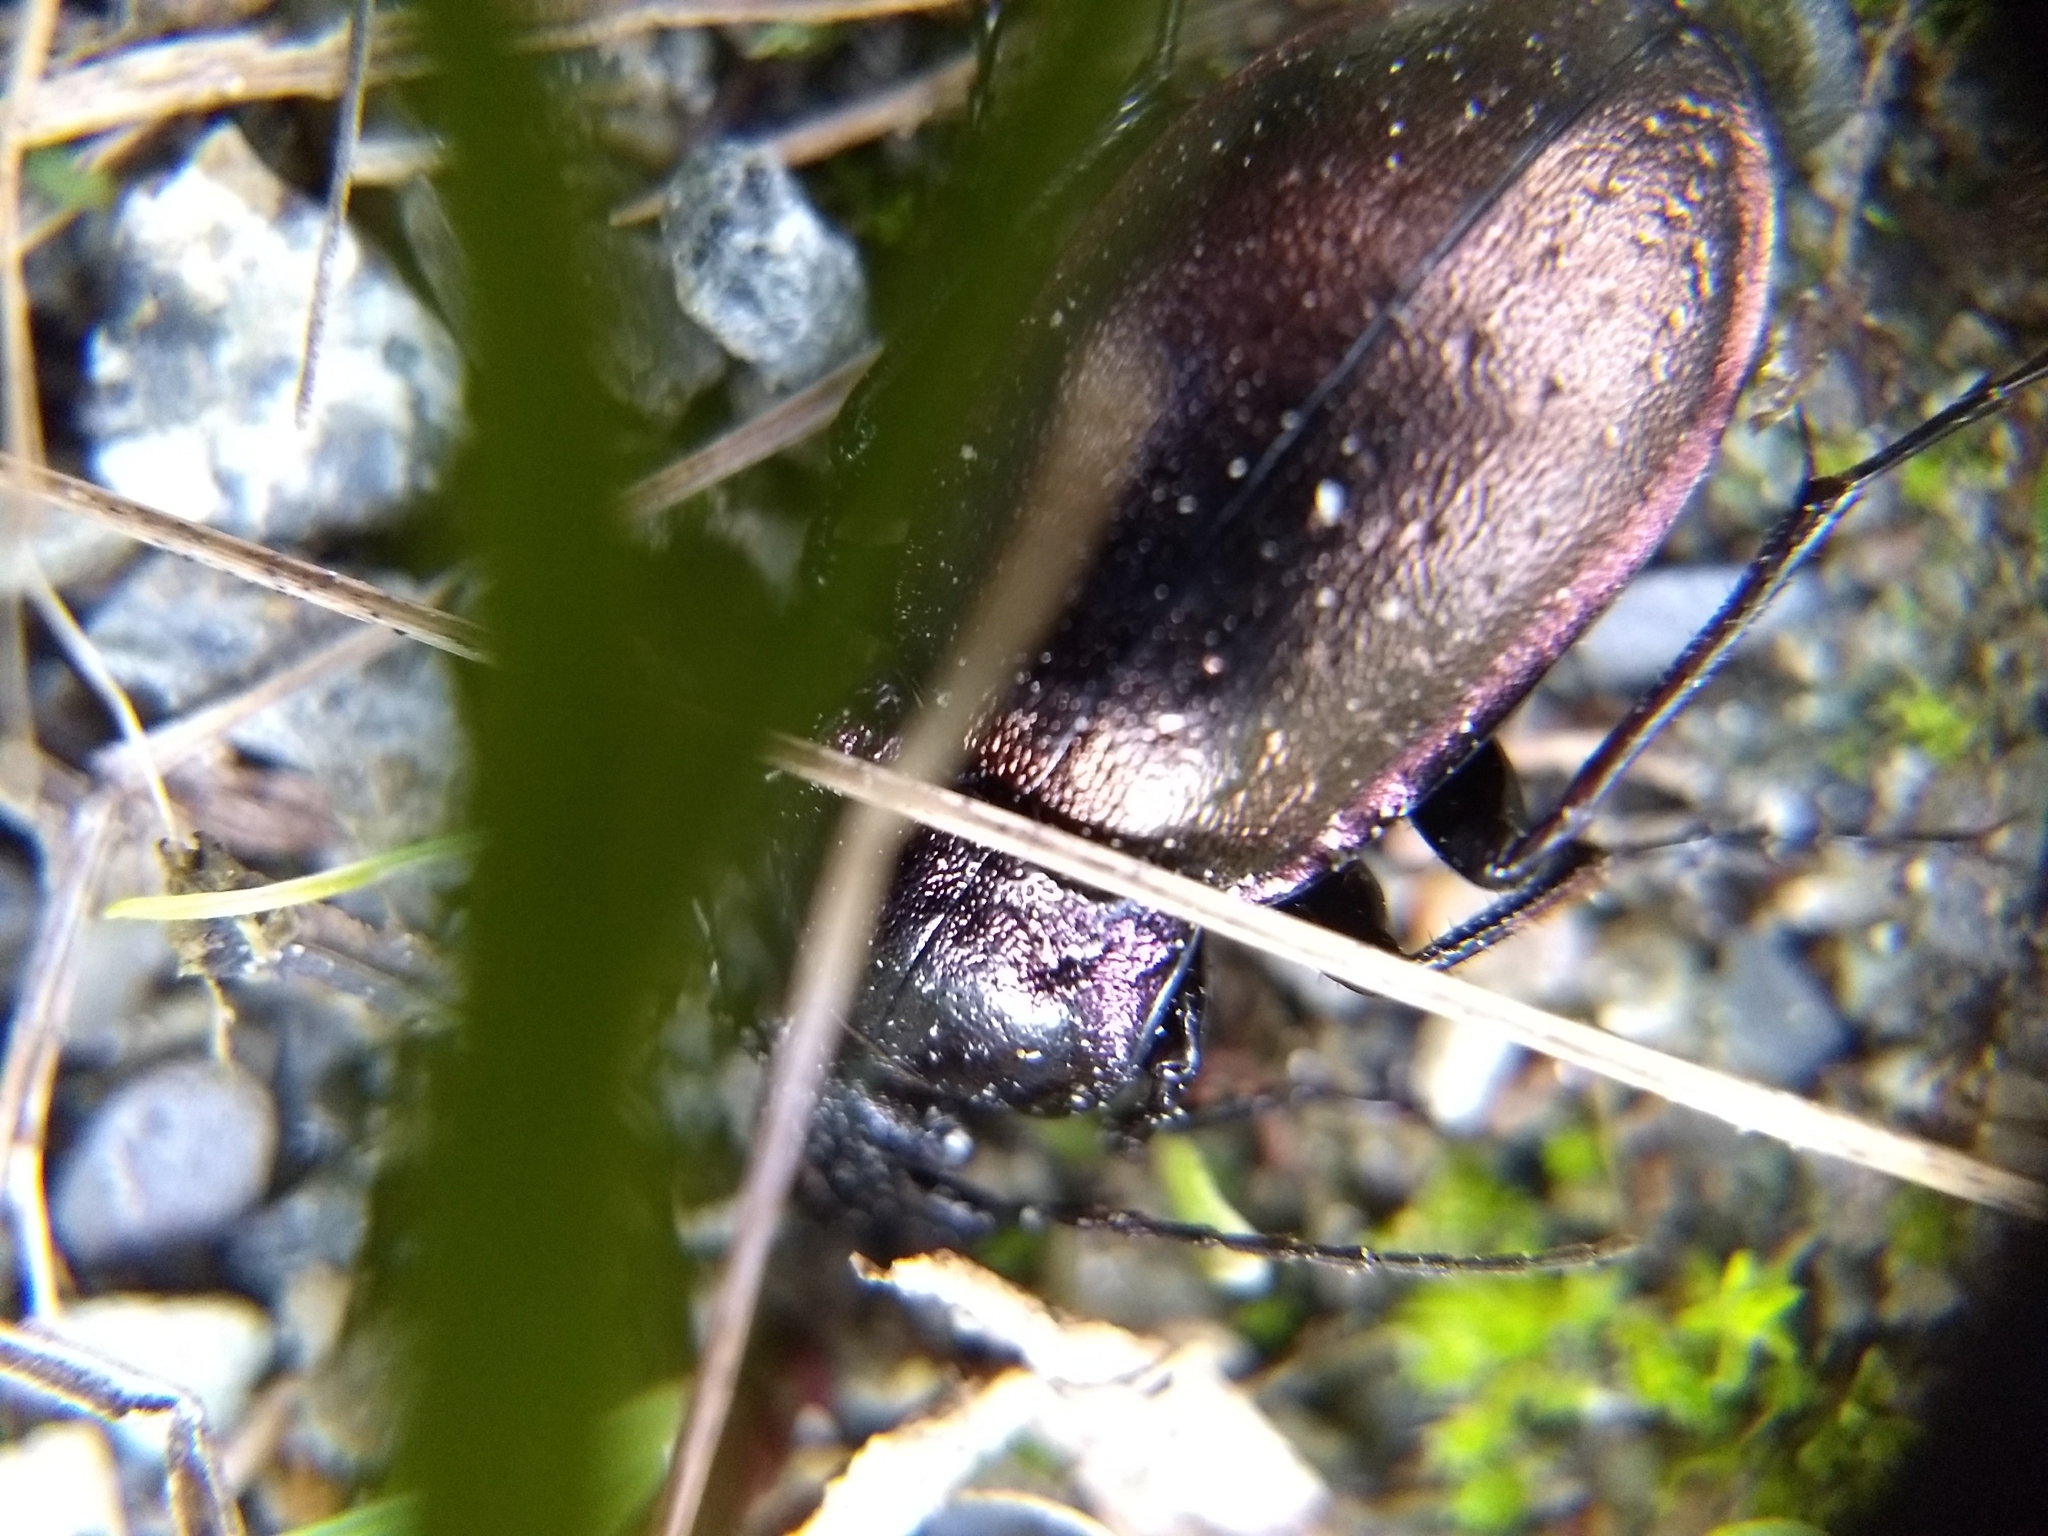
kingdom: Animalia
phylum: Arthropoda
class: Insecta
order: Coleoptera
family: Carabidae
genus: Carabus
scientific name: Carabus nemoralis
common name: European ground beetle
